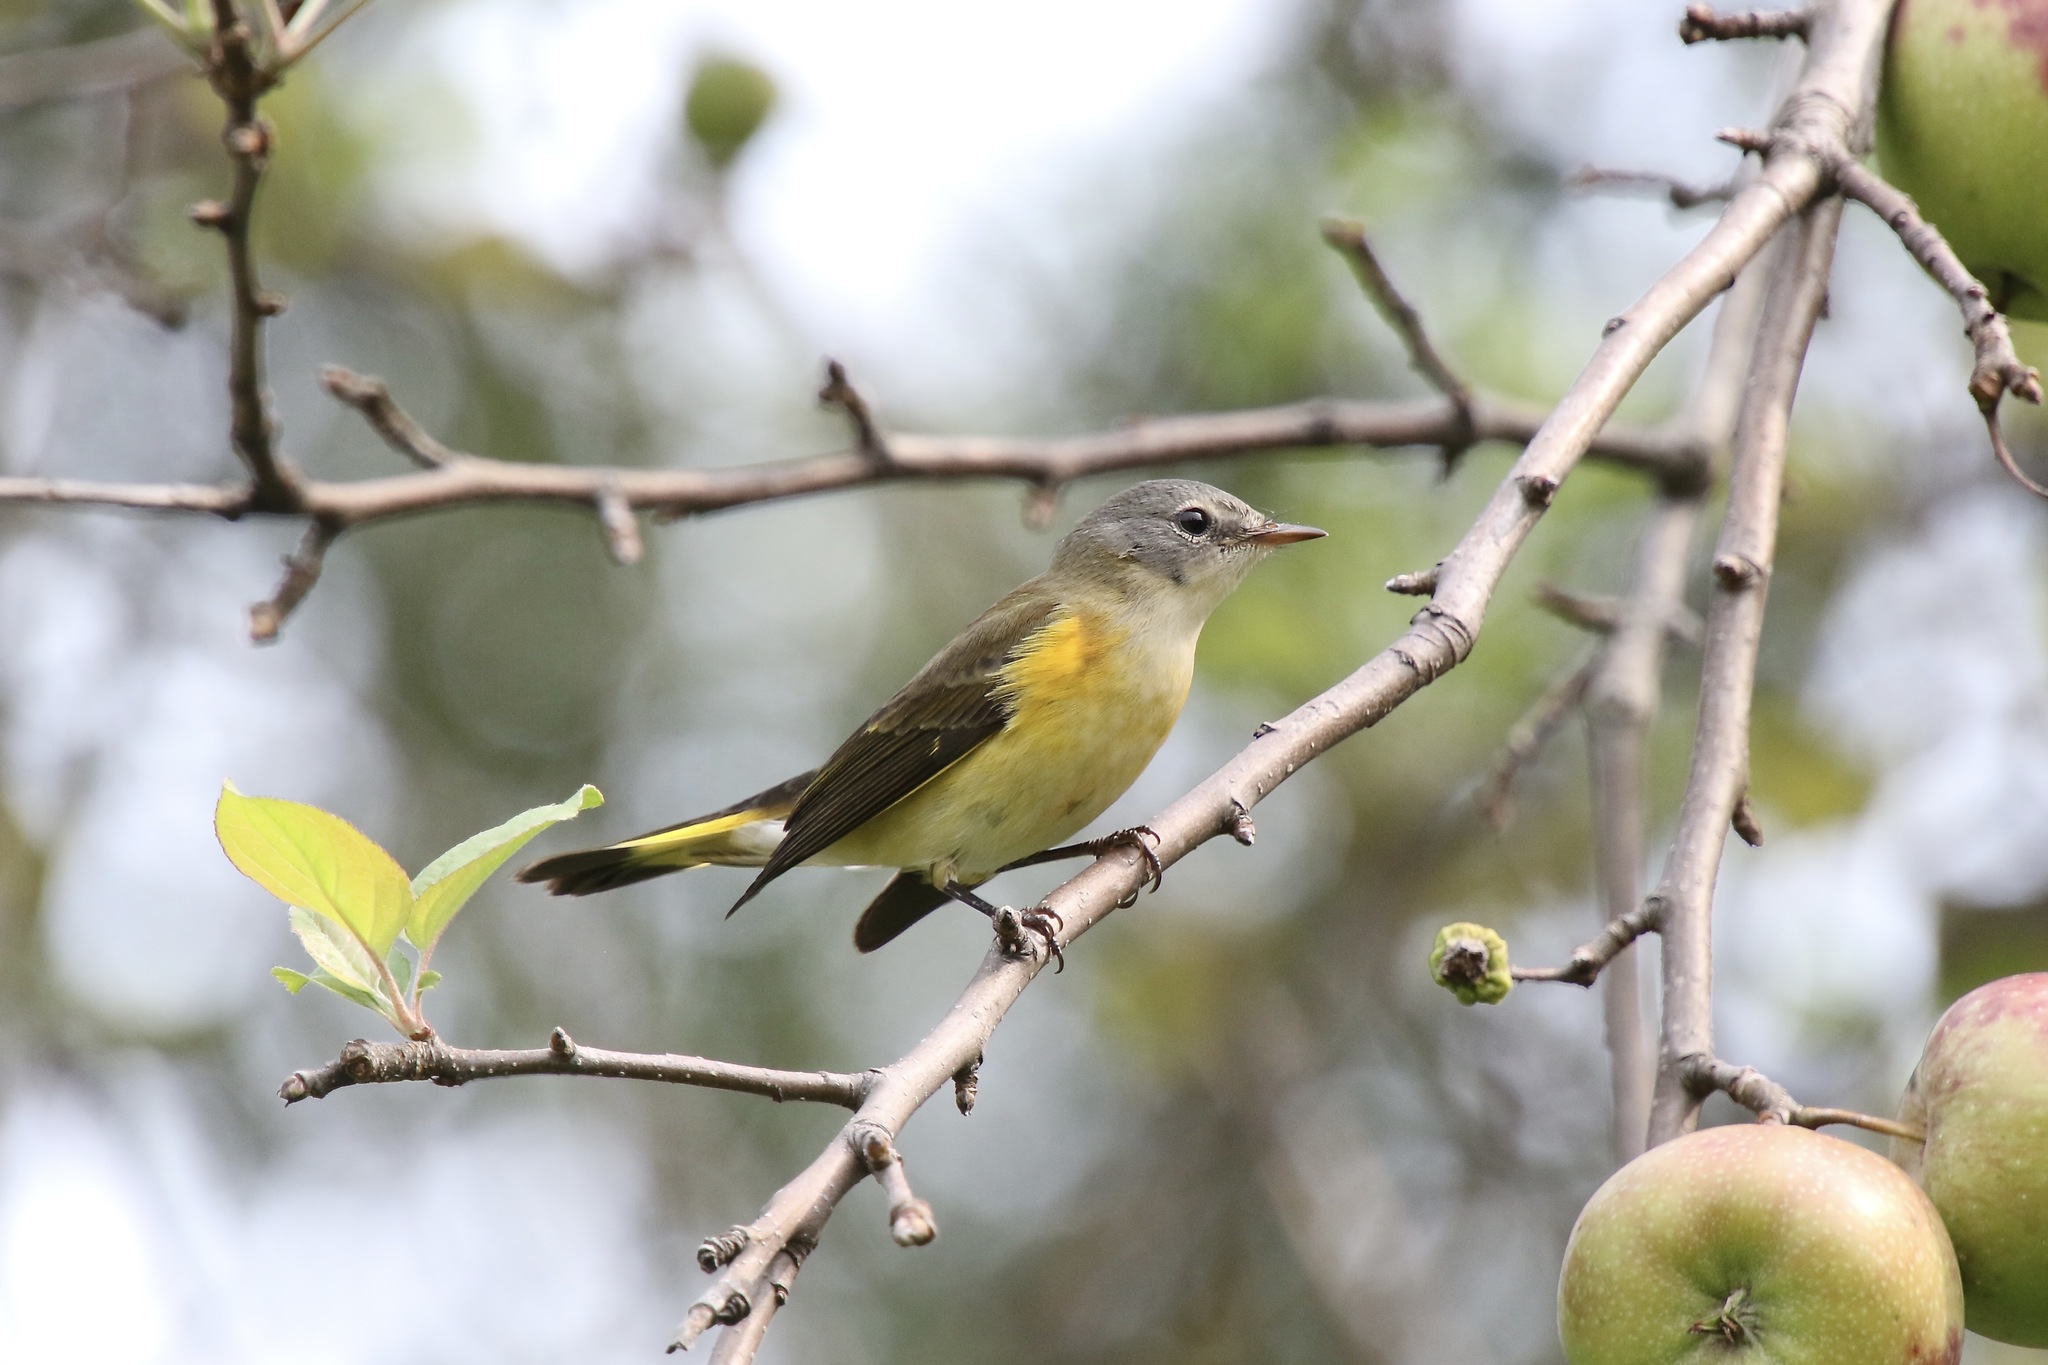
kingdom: Animalia
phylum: Chordata
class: Aves
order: Passeriformes
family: Parulidae
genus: Setophaga
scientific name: Setophaga ruticilla
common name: American redstart
